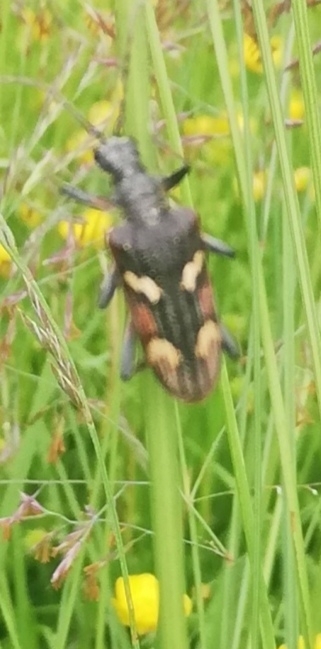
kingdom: Animalia
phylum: Arthropoda
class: Insecta
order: Coleoptera
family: Cerambycidae
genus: Rhagium
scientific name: Rhagium bifasciatum
